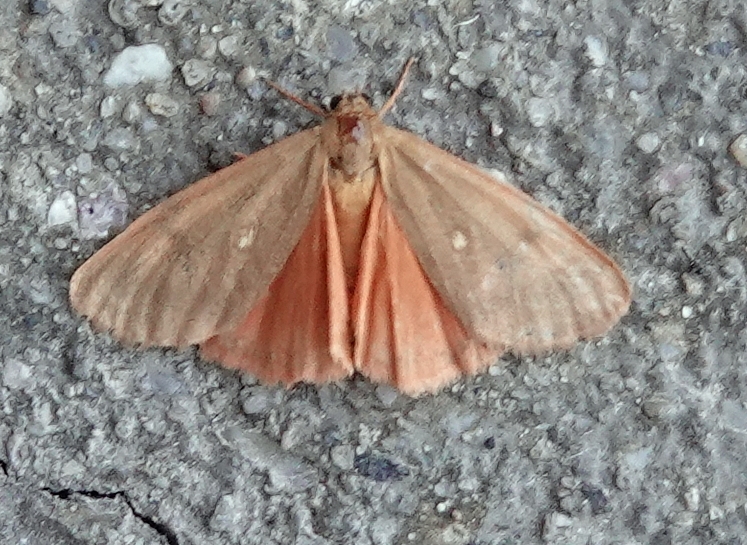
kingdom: Animalia
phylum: Arthropoda
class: Insecta
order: Lepidoptera
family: Erebidae
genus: Virbia
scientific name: Virbia fragilis
